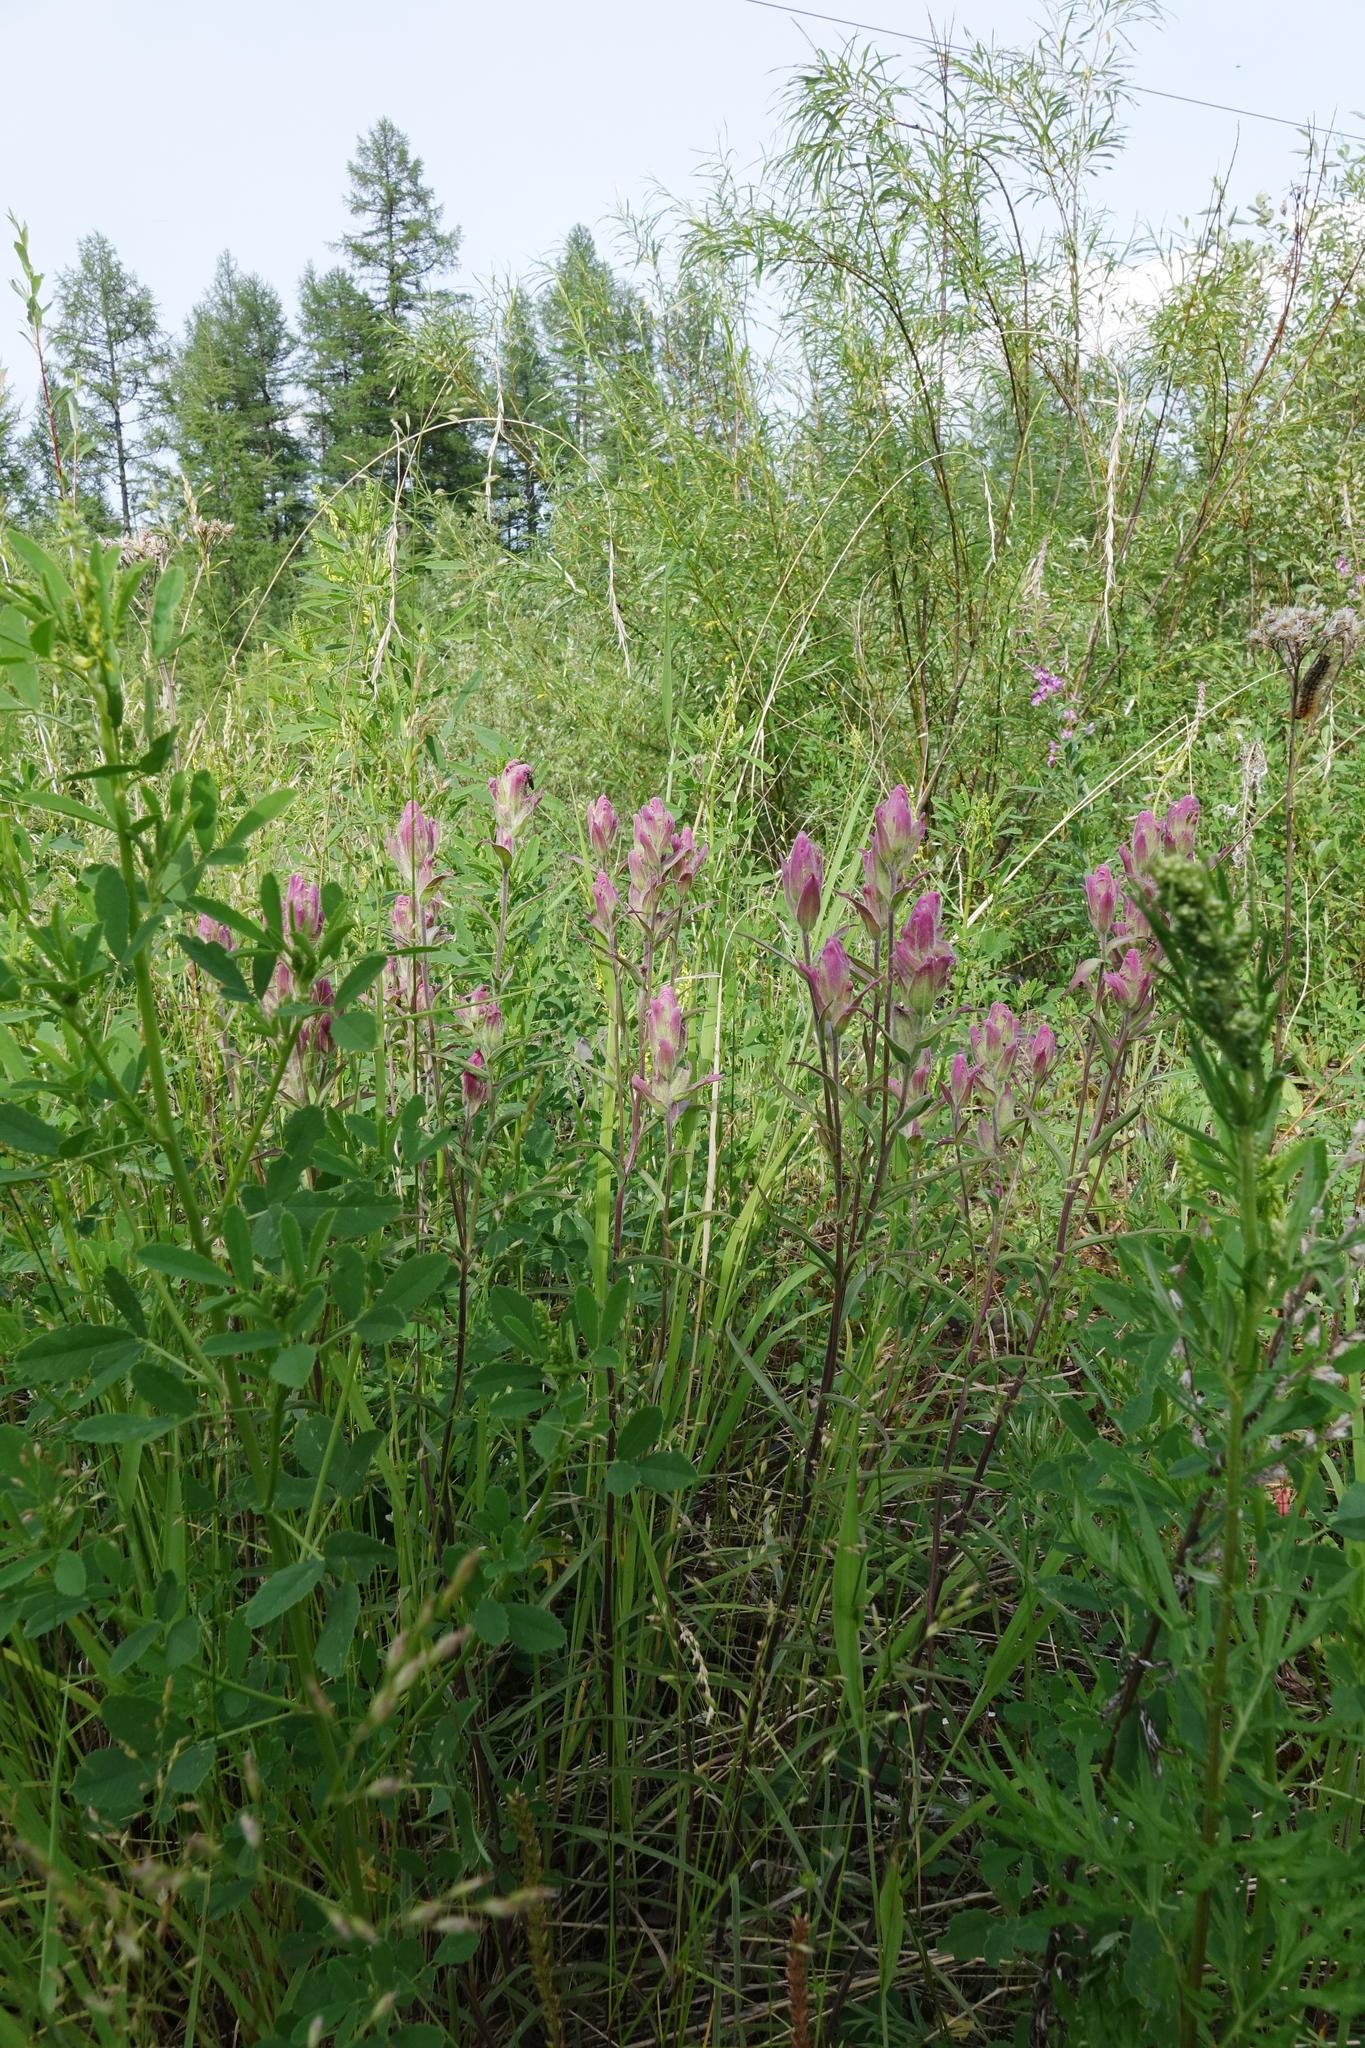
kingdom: Plantae
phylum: Tracheophyta
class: Magnoliopsida
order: Lamiales
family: Orobanchaceae
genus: Castilleja
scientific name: Castilleja rubra
